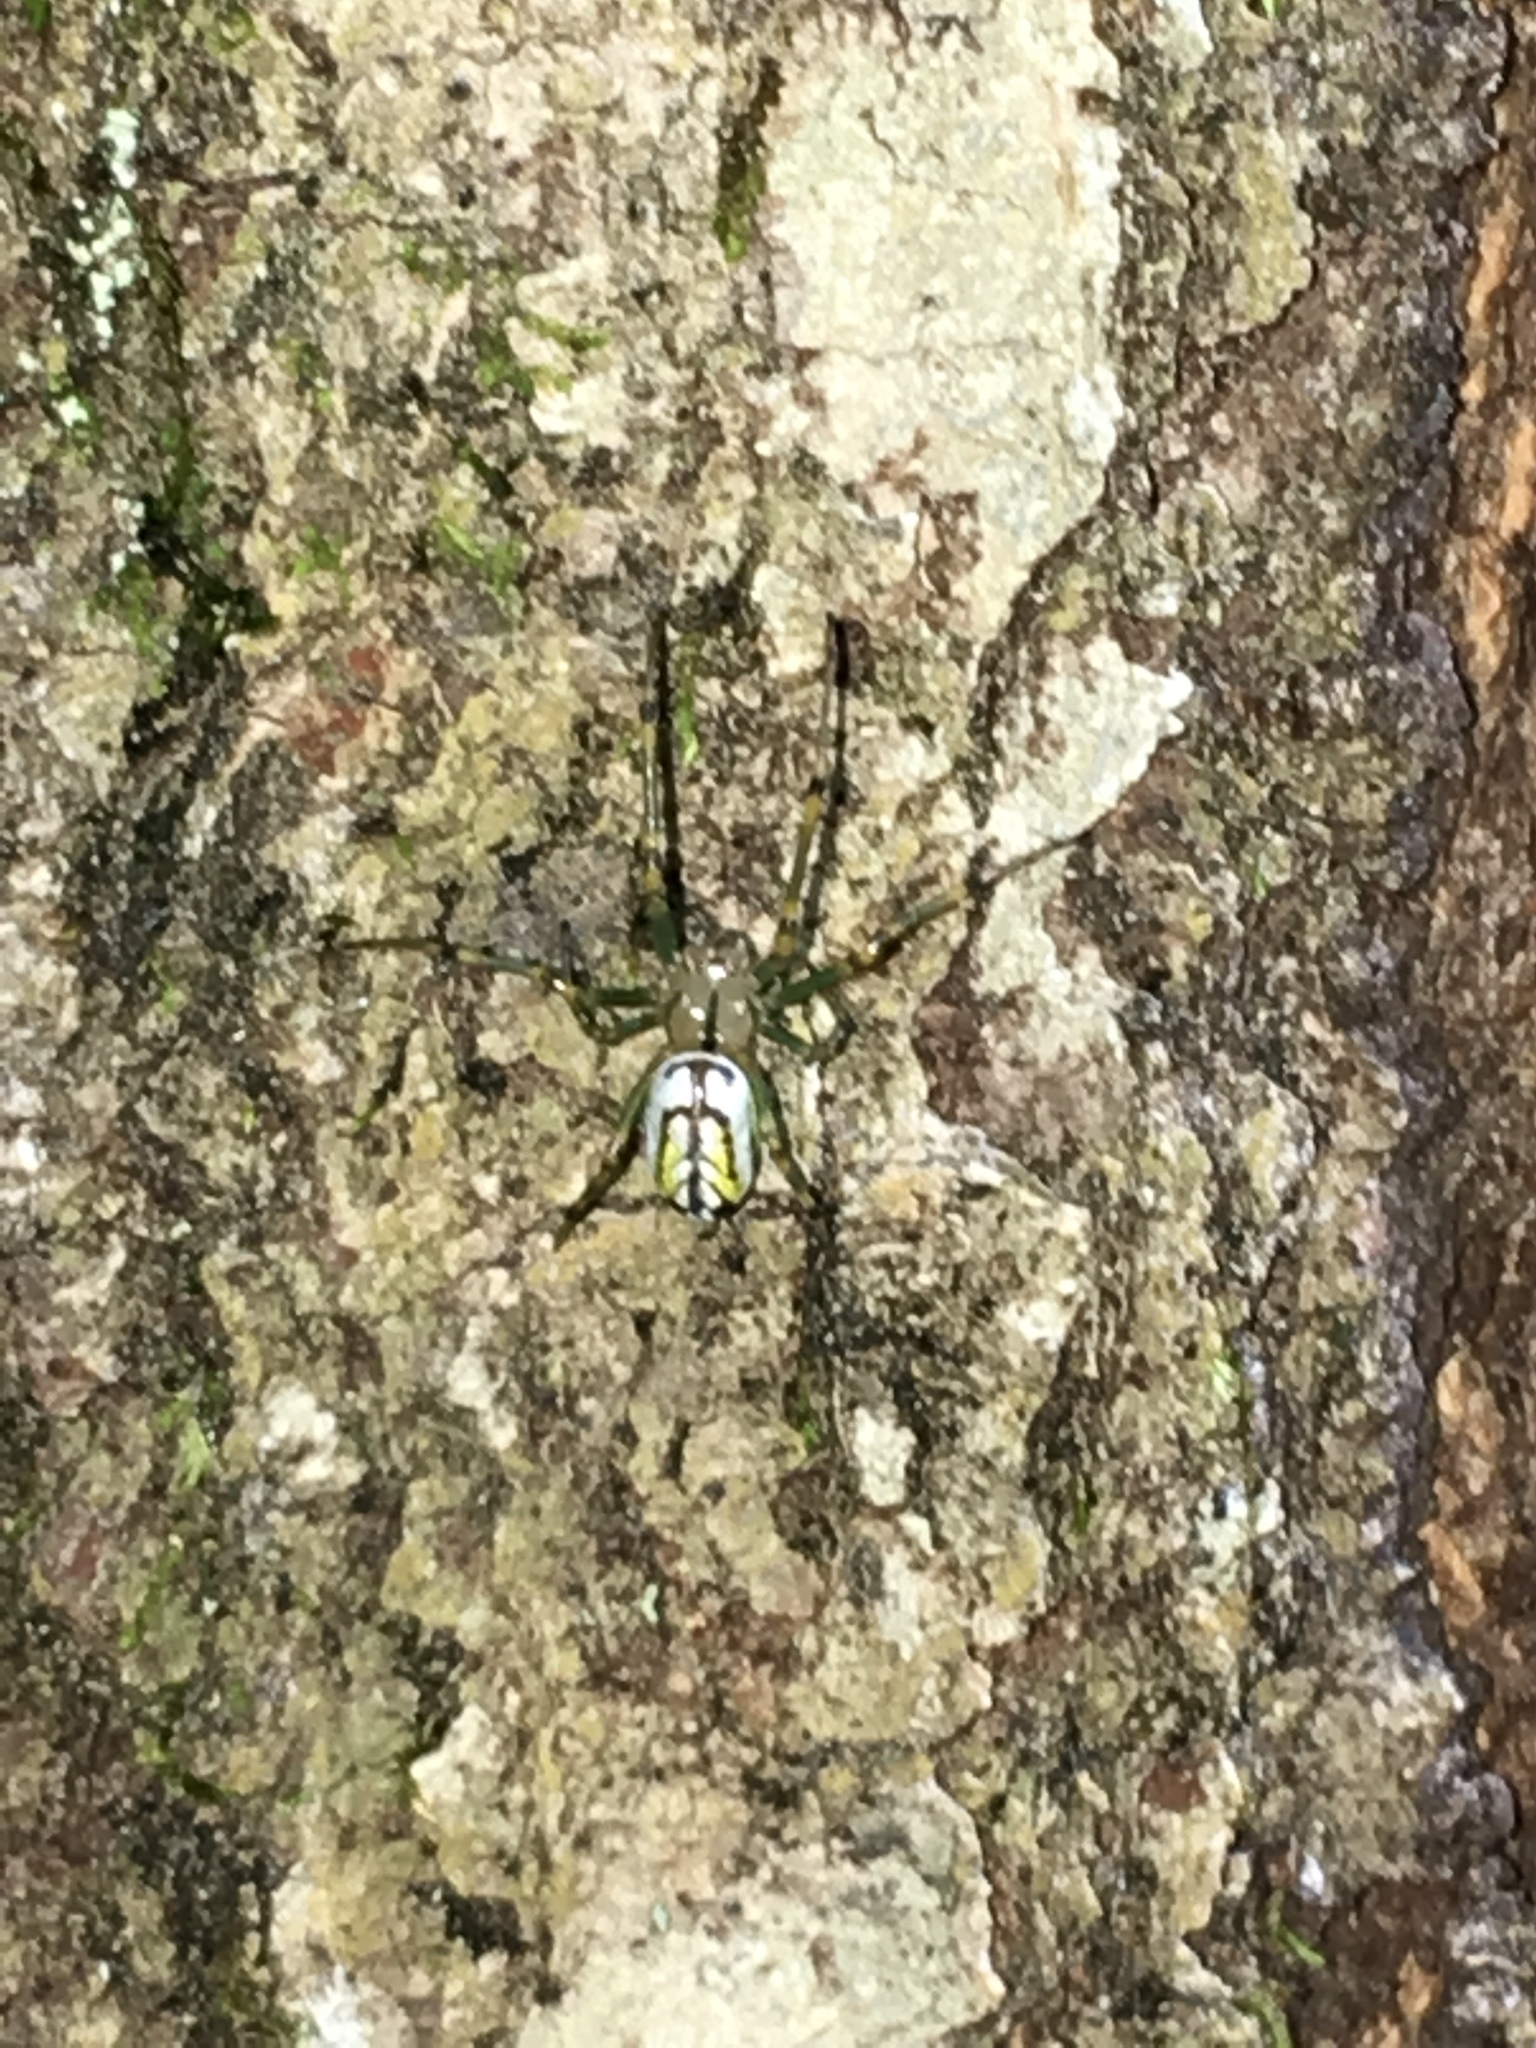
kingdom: Animalia
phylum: Arthropoda
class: Arachnida
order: Araneae
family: Tetragnathidae
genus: Leucauge
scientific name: Leucauge venusta
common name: Longjawed orb weavers
